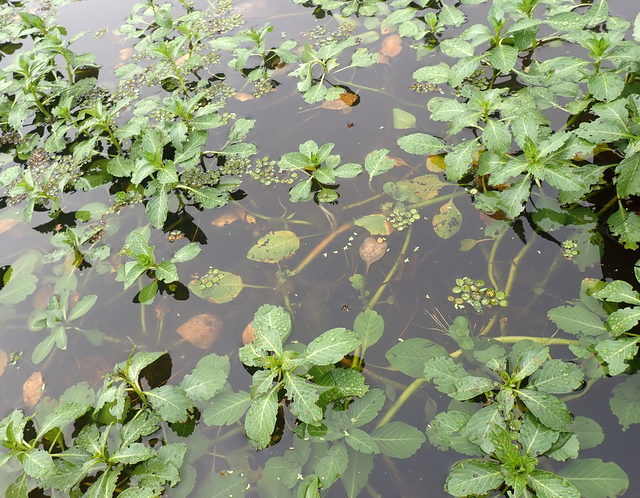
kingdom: Plantae
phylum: Tracheophyta
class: Magnoliopsida
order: Myrtales
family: Onagraceae
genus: Ludwigia
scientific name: Ludwigia peploides
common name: Floating primrose-willow
